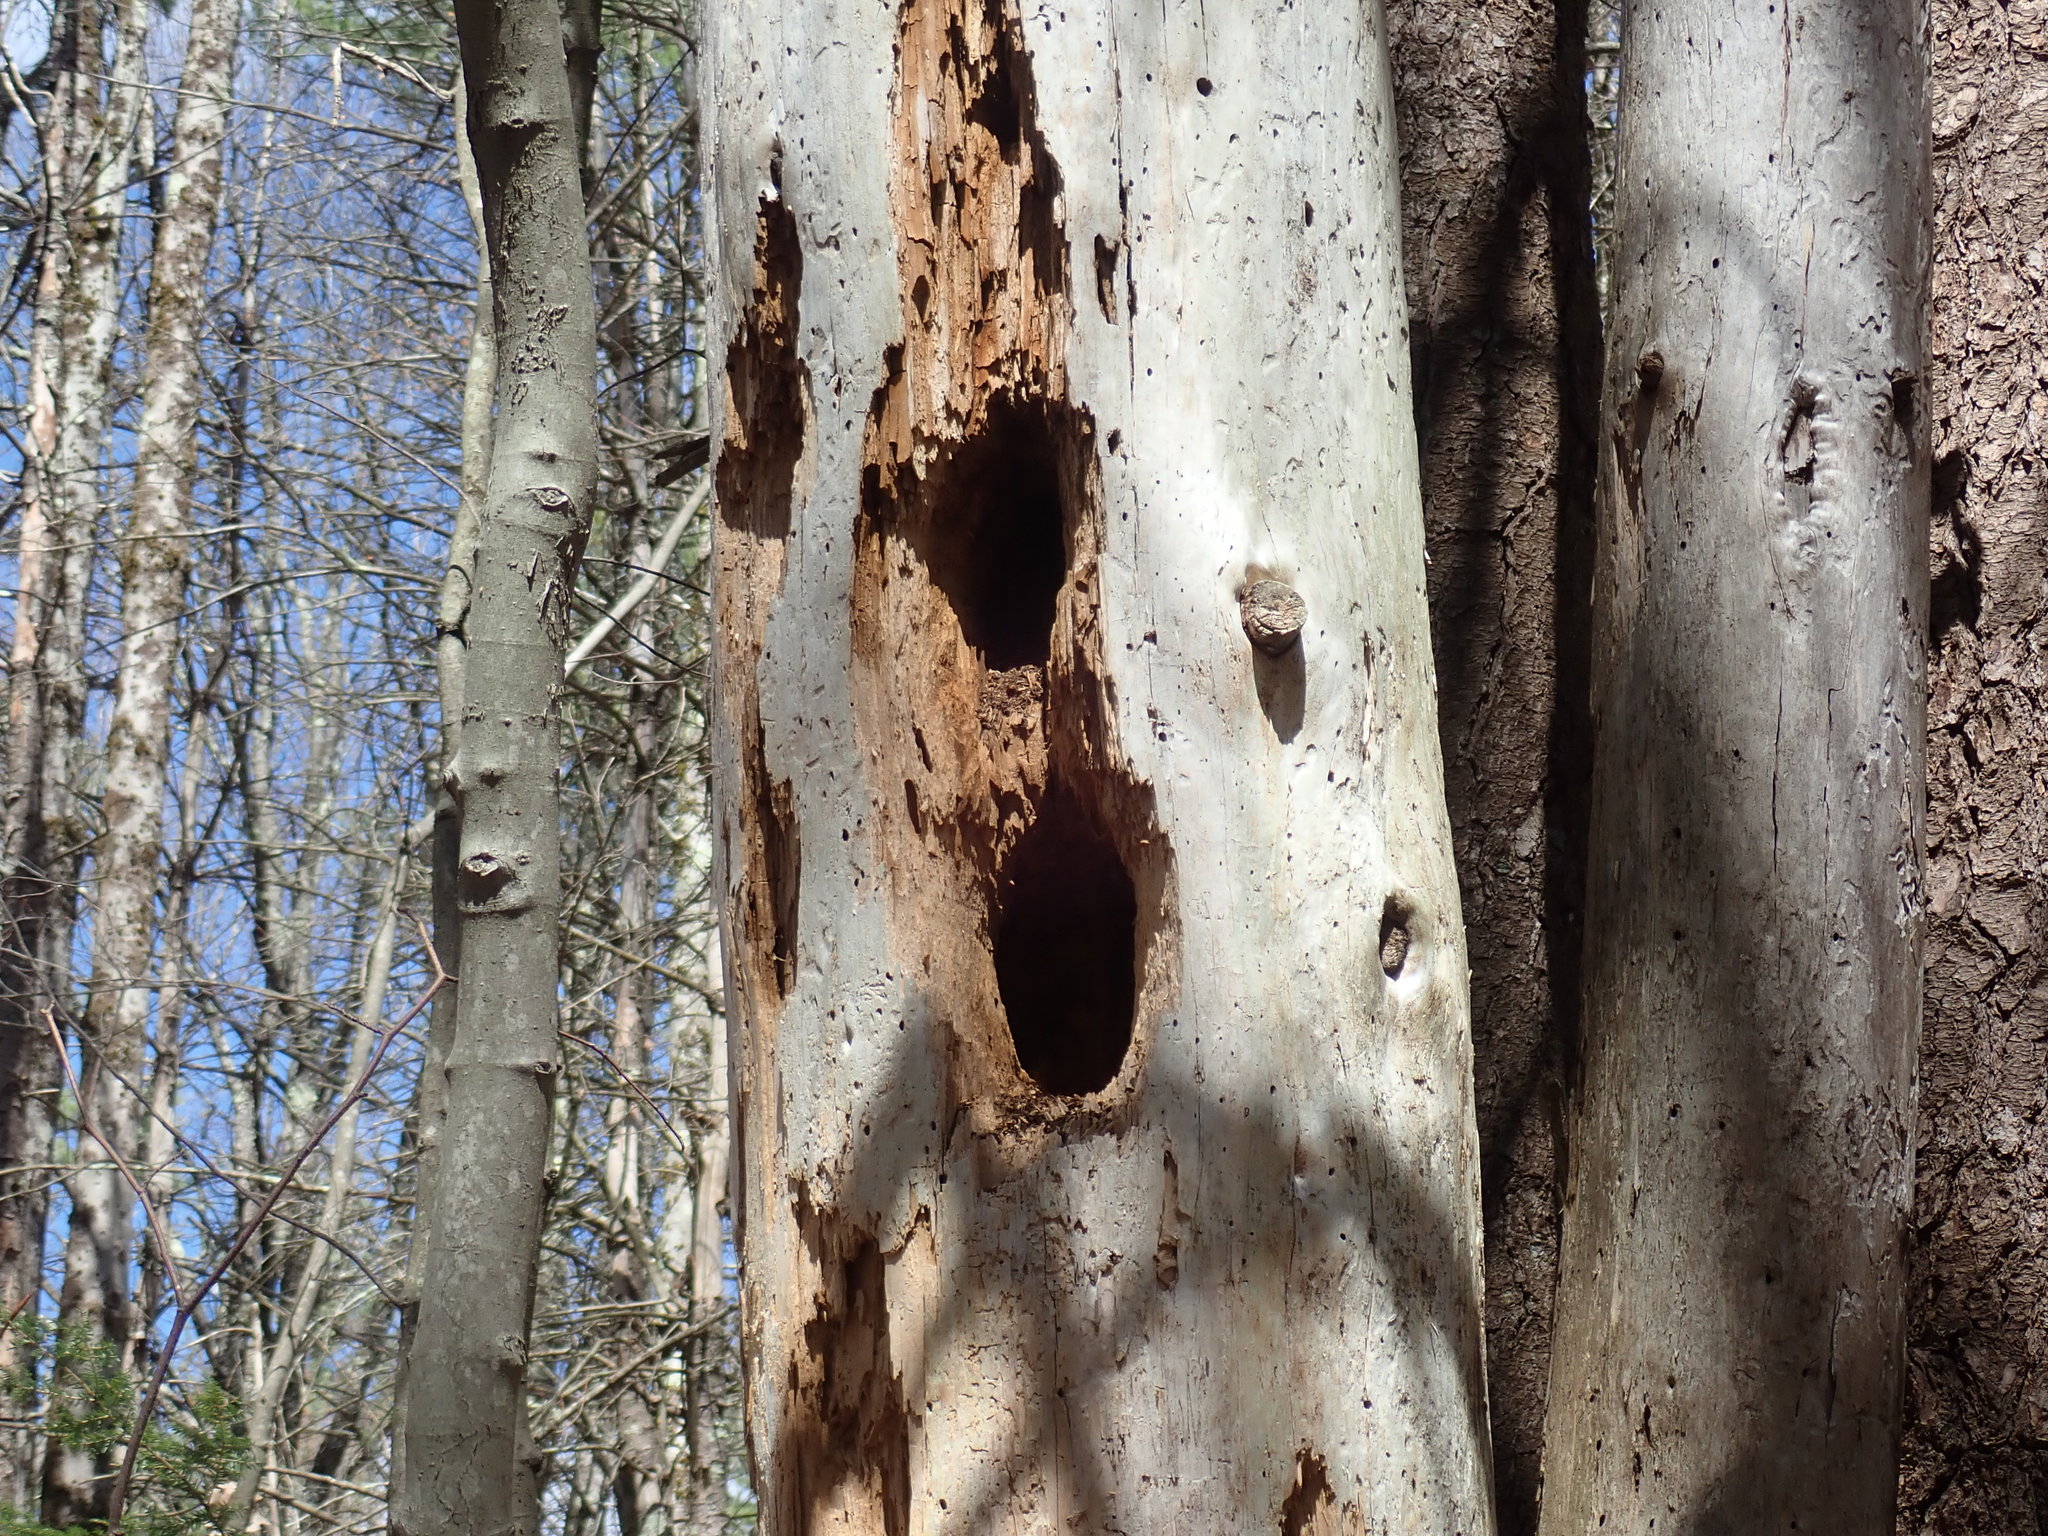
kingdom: Animalia
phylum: Chordata
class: Aves
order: Piciformes
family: Picidae
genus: Dryocopus
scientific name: Dryocopus pileatus
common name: Pileated woodpecker
